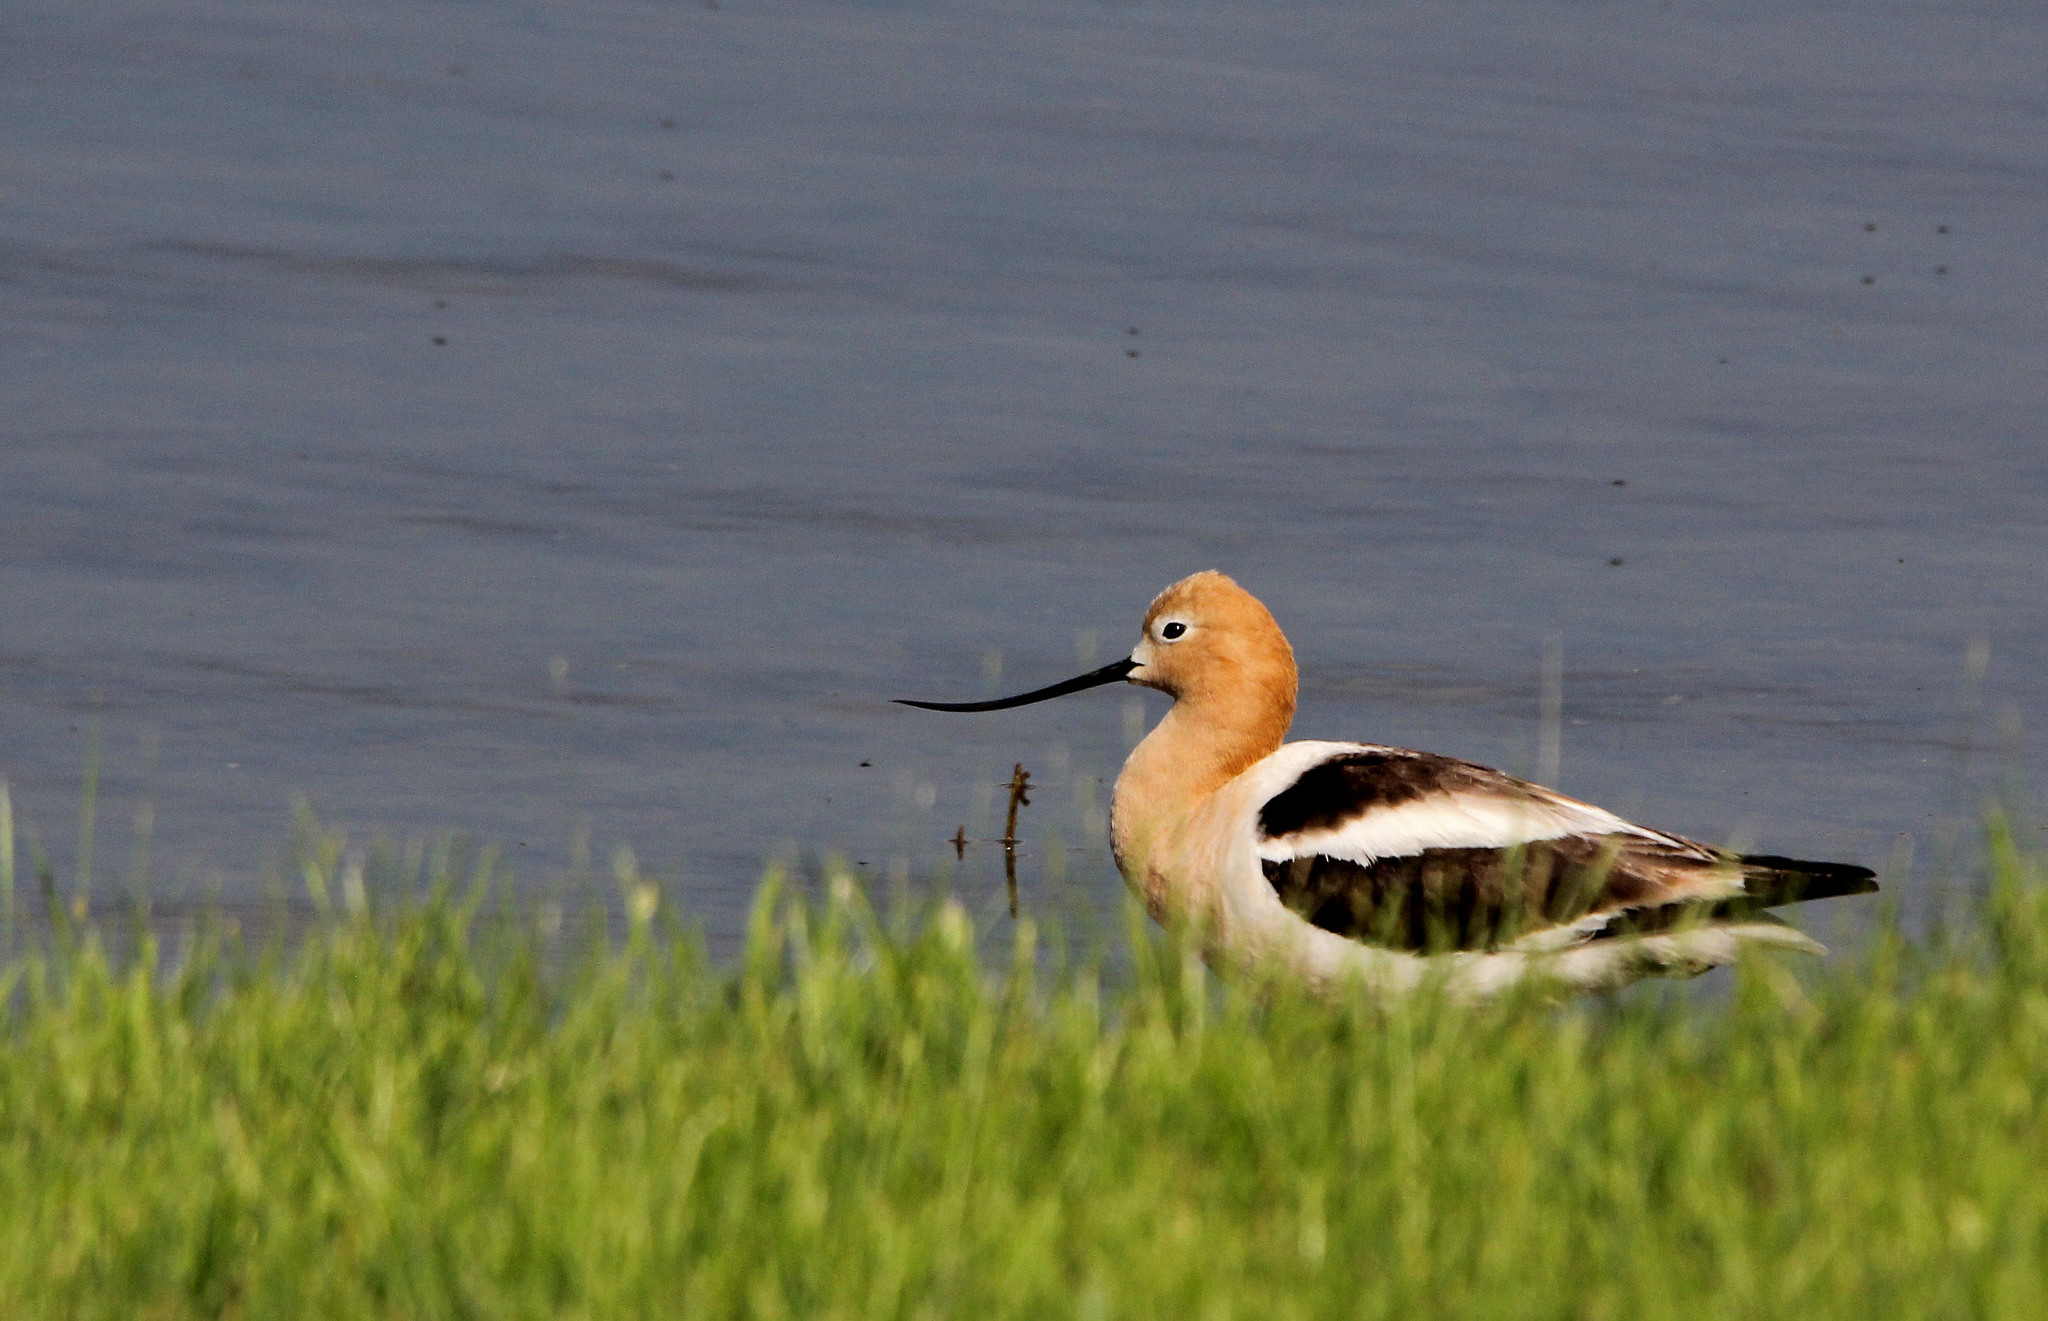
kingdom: Animalia
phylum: Chordata
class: Aves
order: Charadriiformes
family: Recurvirostridae
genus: Recurvirostra
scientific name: Recurvirostra americana
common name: American avocet
